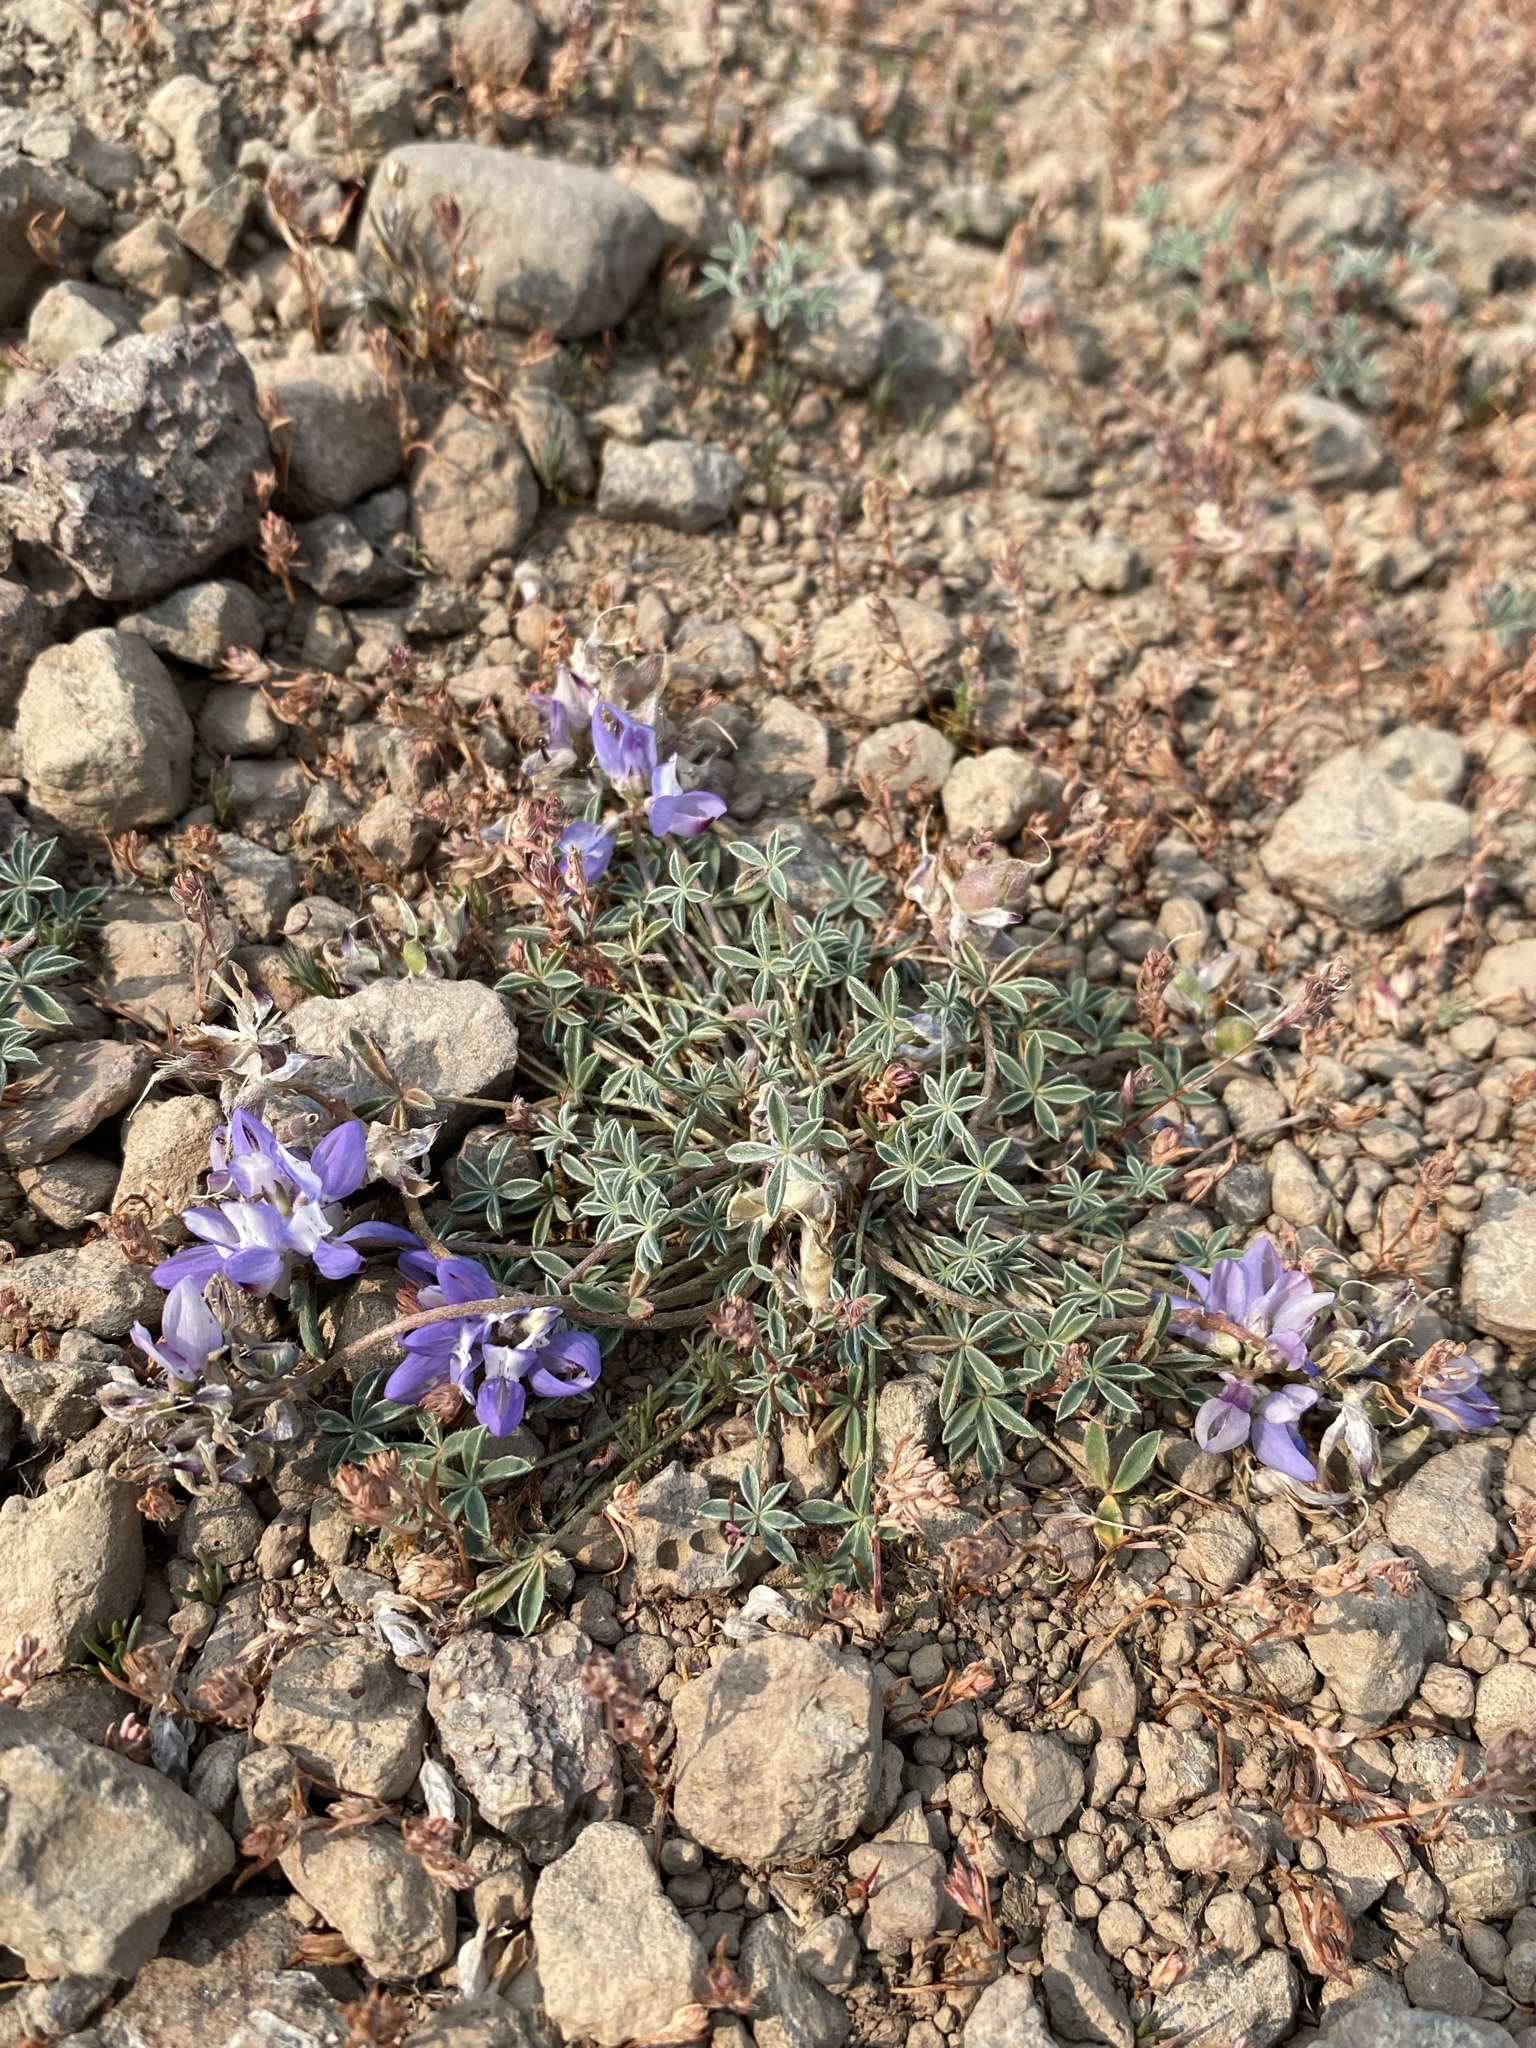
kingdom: Plantae
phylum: Tracheophyta
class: Magnoliopsida
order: Fabales
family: Fabaceae
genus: Lupinus
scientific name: Lupinus lepidus
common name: Prairie lupine
